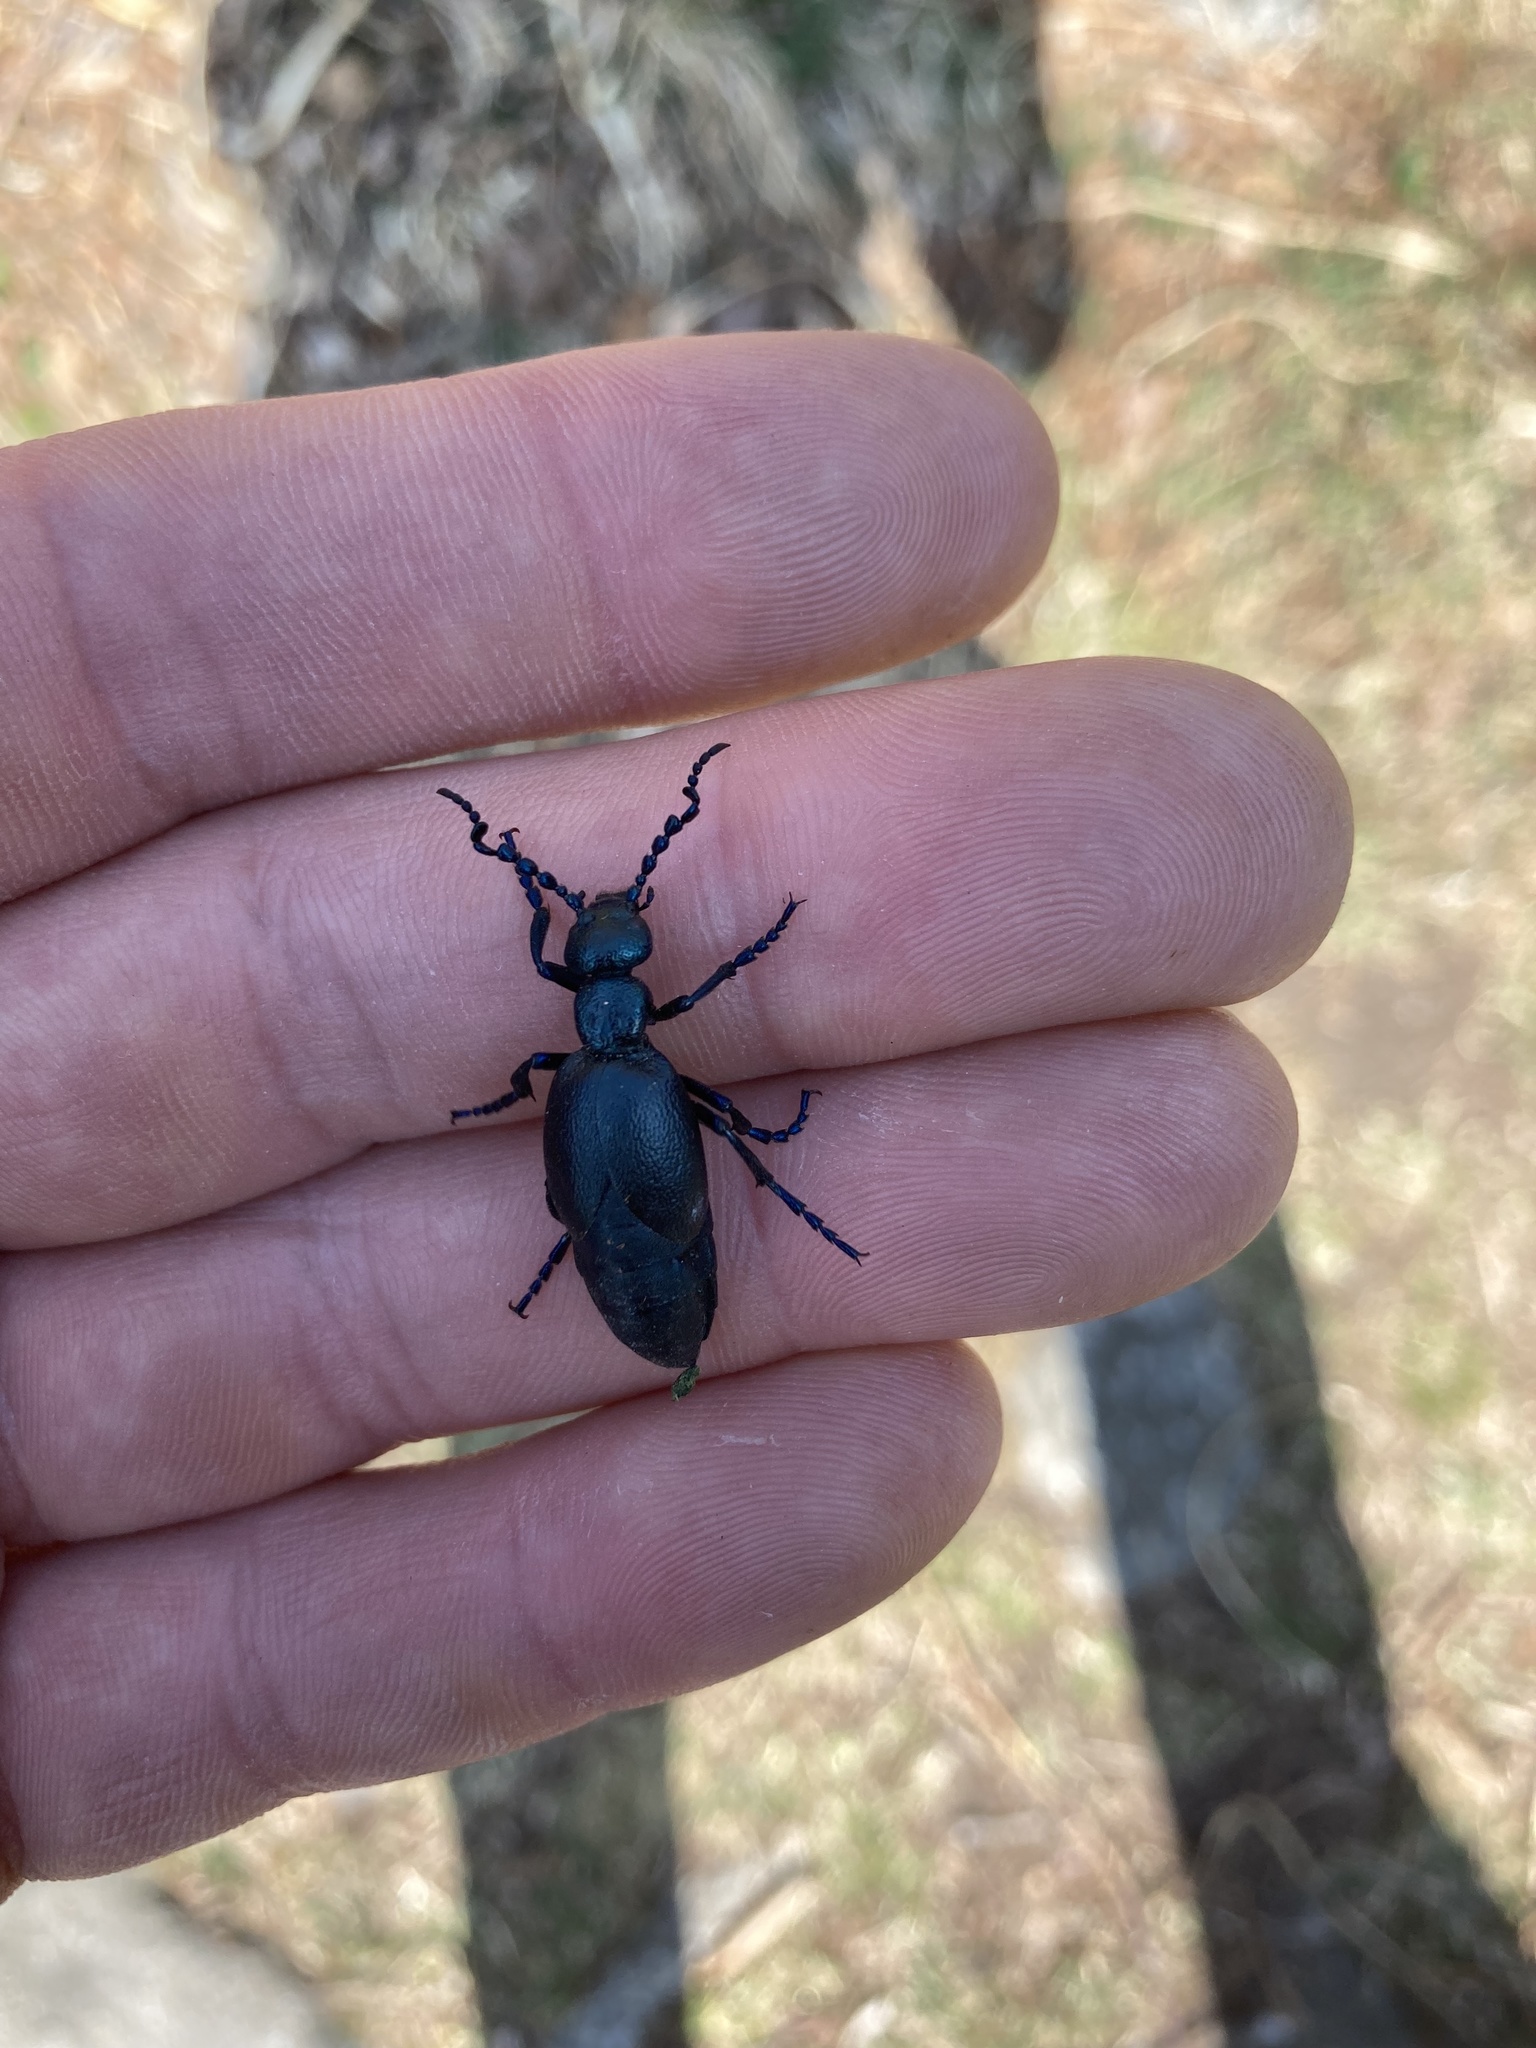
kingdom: Animalia
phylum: Arthropoda
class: Insecta
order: Coleoptera
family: Meloidae
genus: Meloe
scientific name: Meloe proscarabaeus
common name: Black oil-beetle
